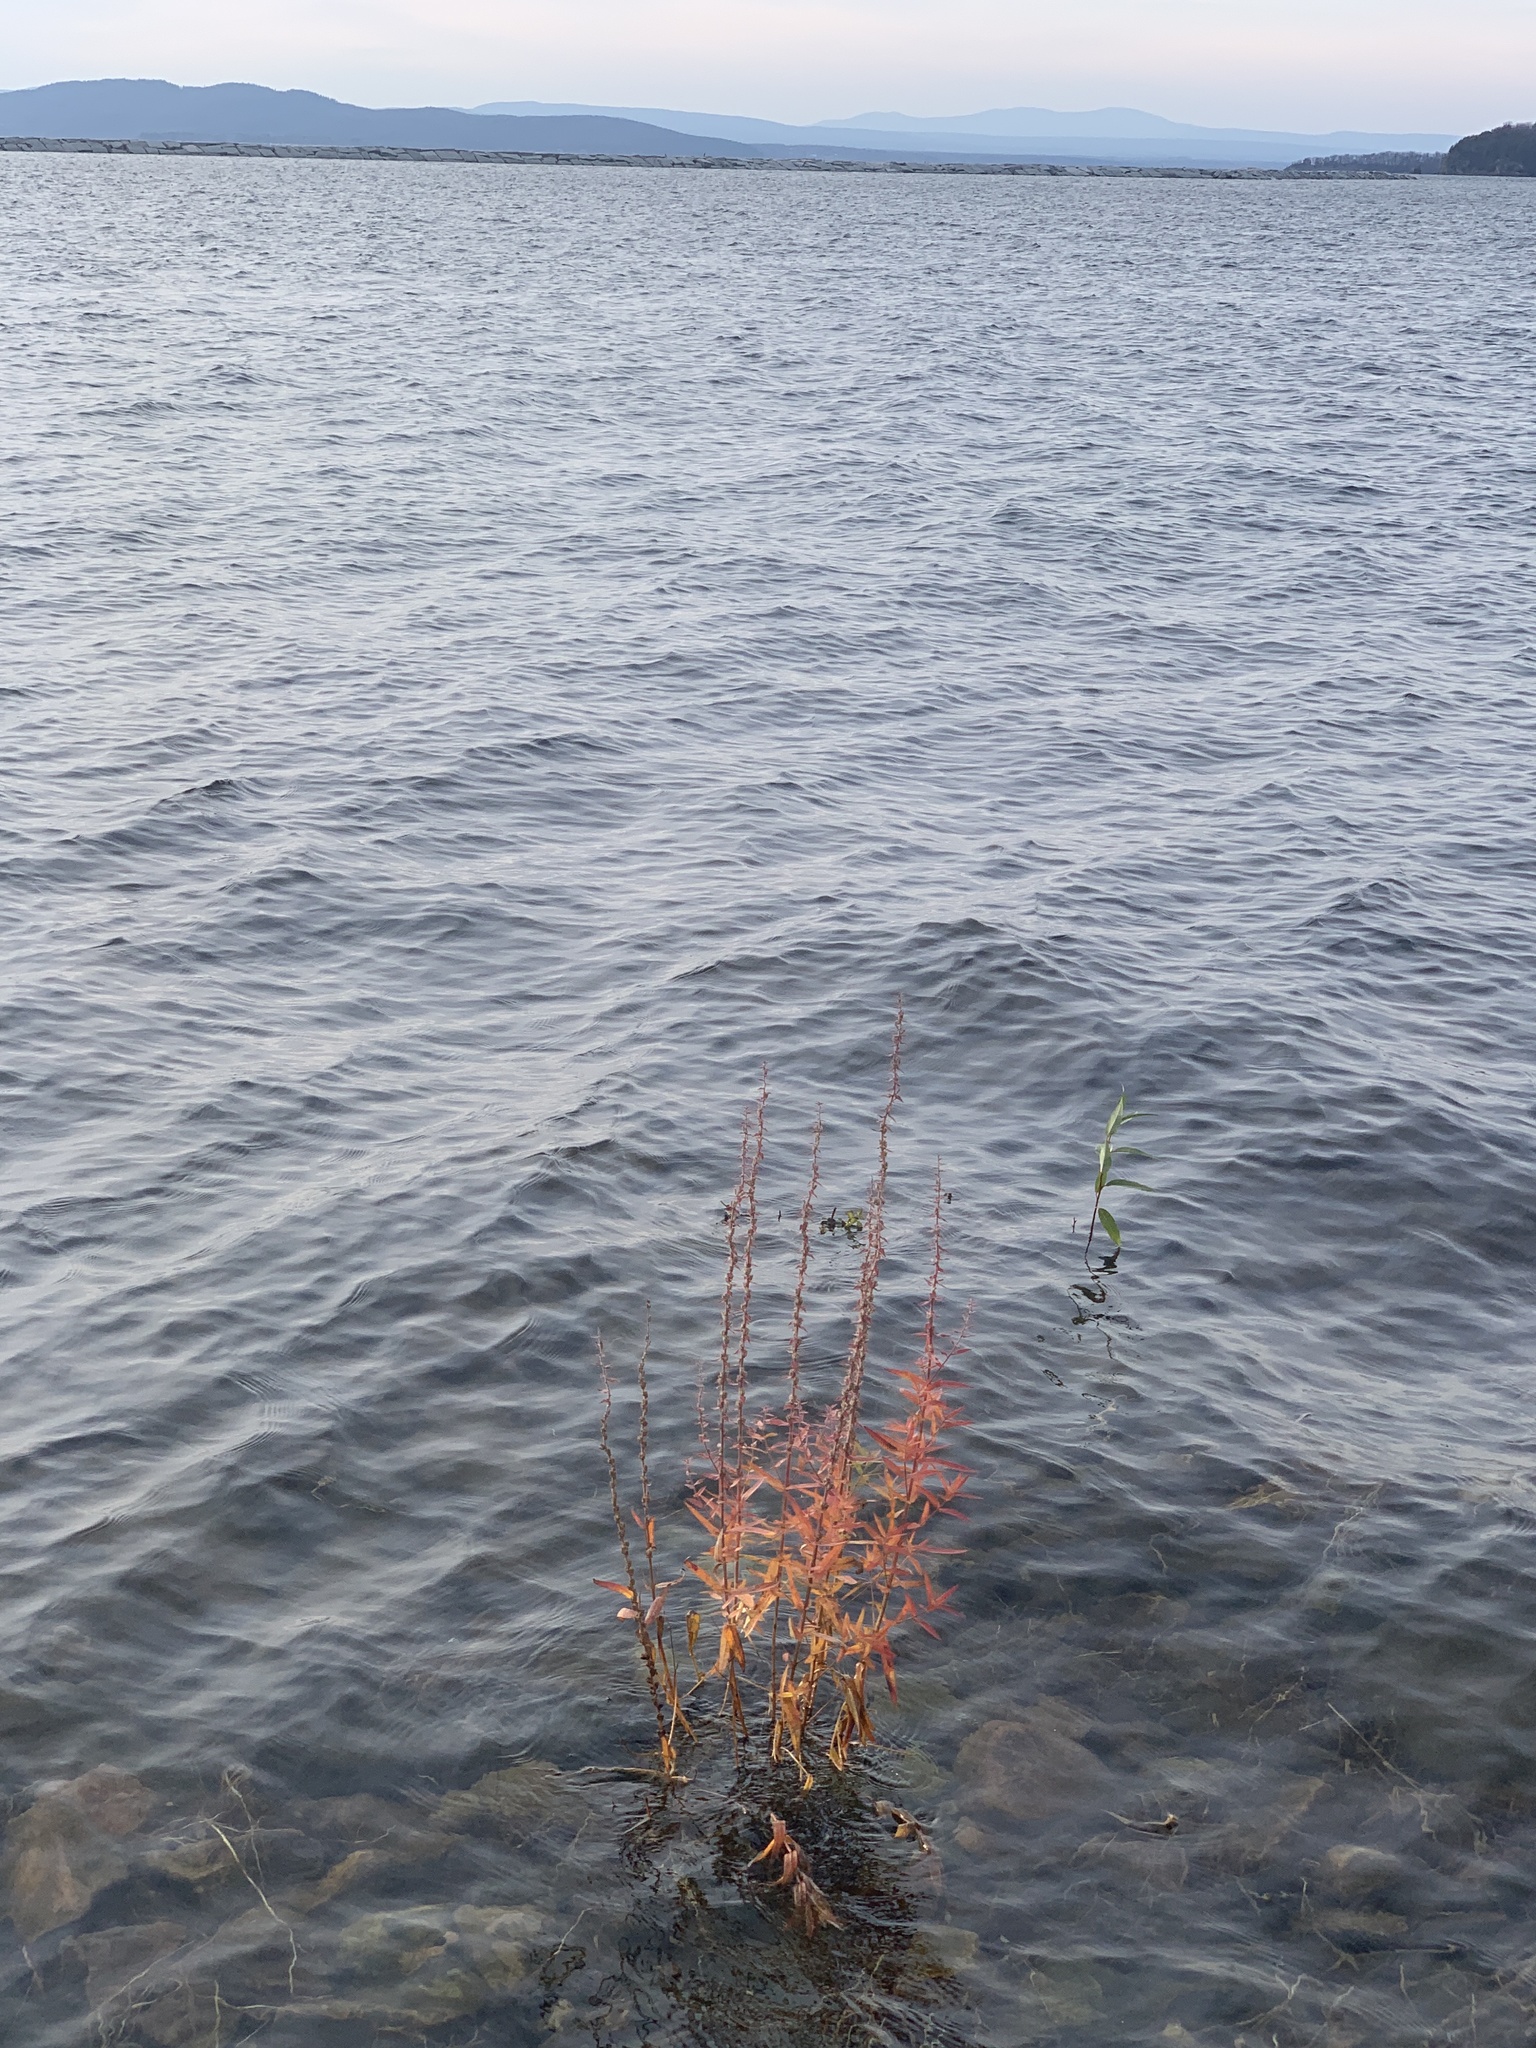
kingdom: Plantae
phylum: Tracheophyta
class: Magnoliopsida
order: Myrtales
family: Lythraceae
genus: Lythrum
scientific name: Lythrum salicaria
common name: Purple loosestrife
